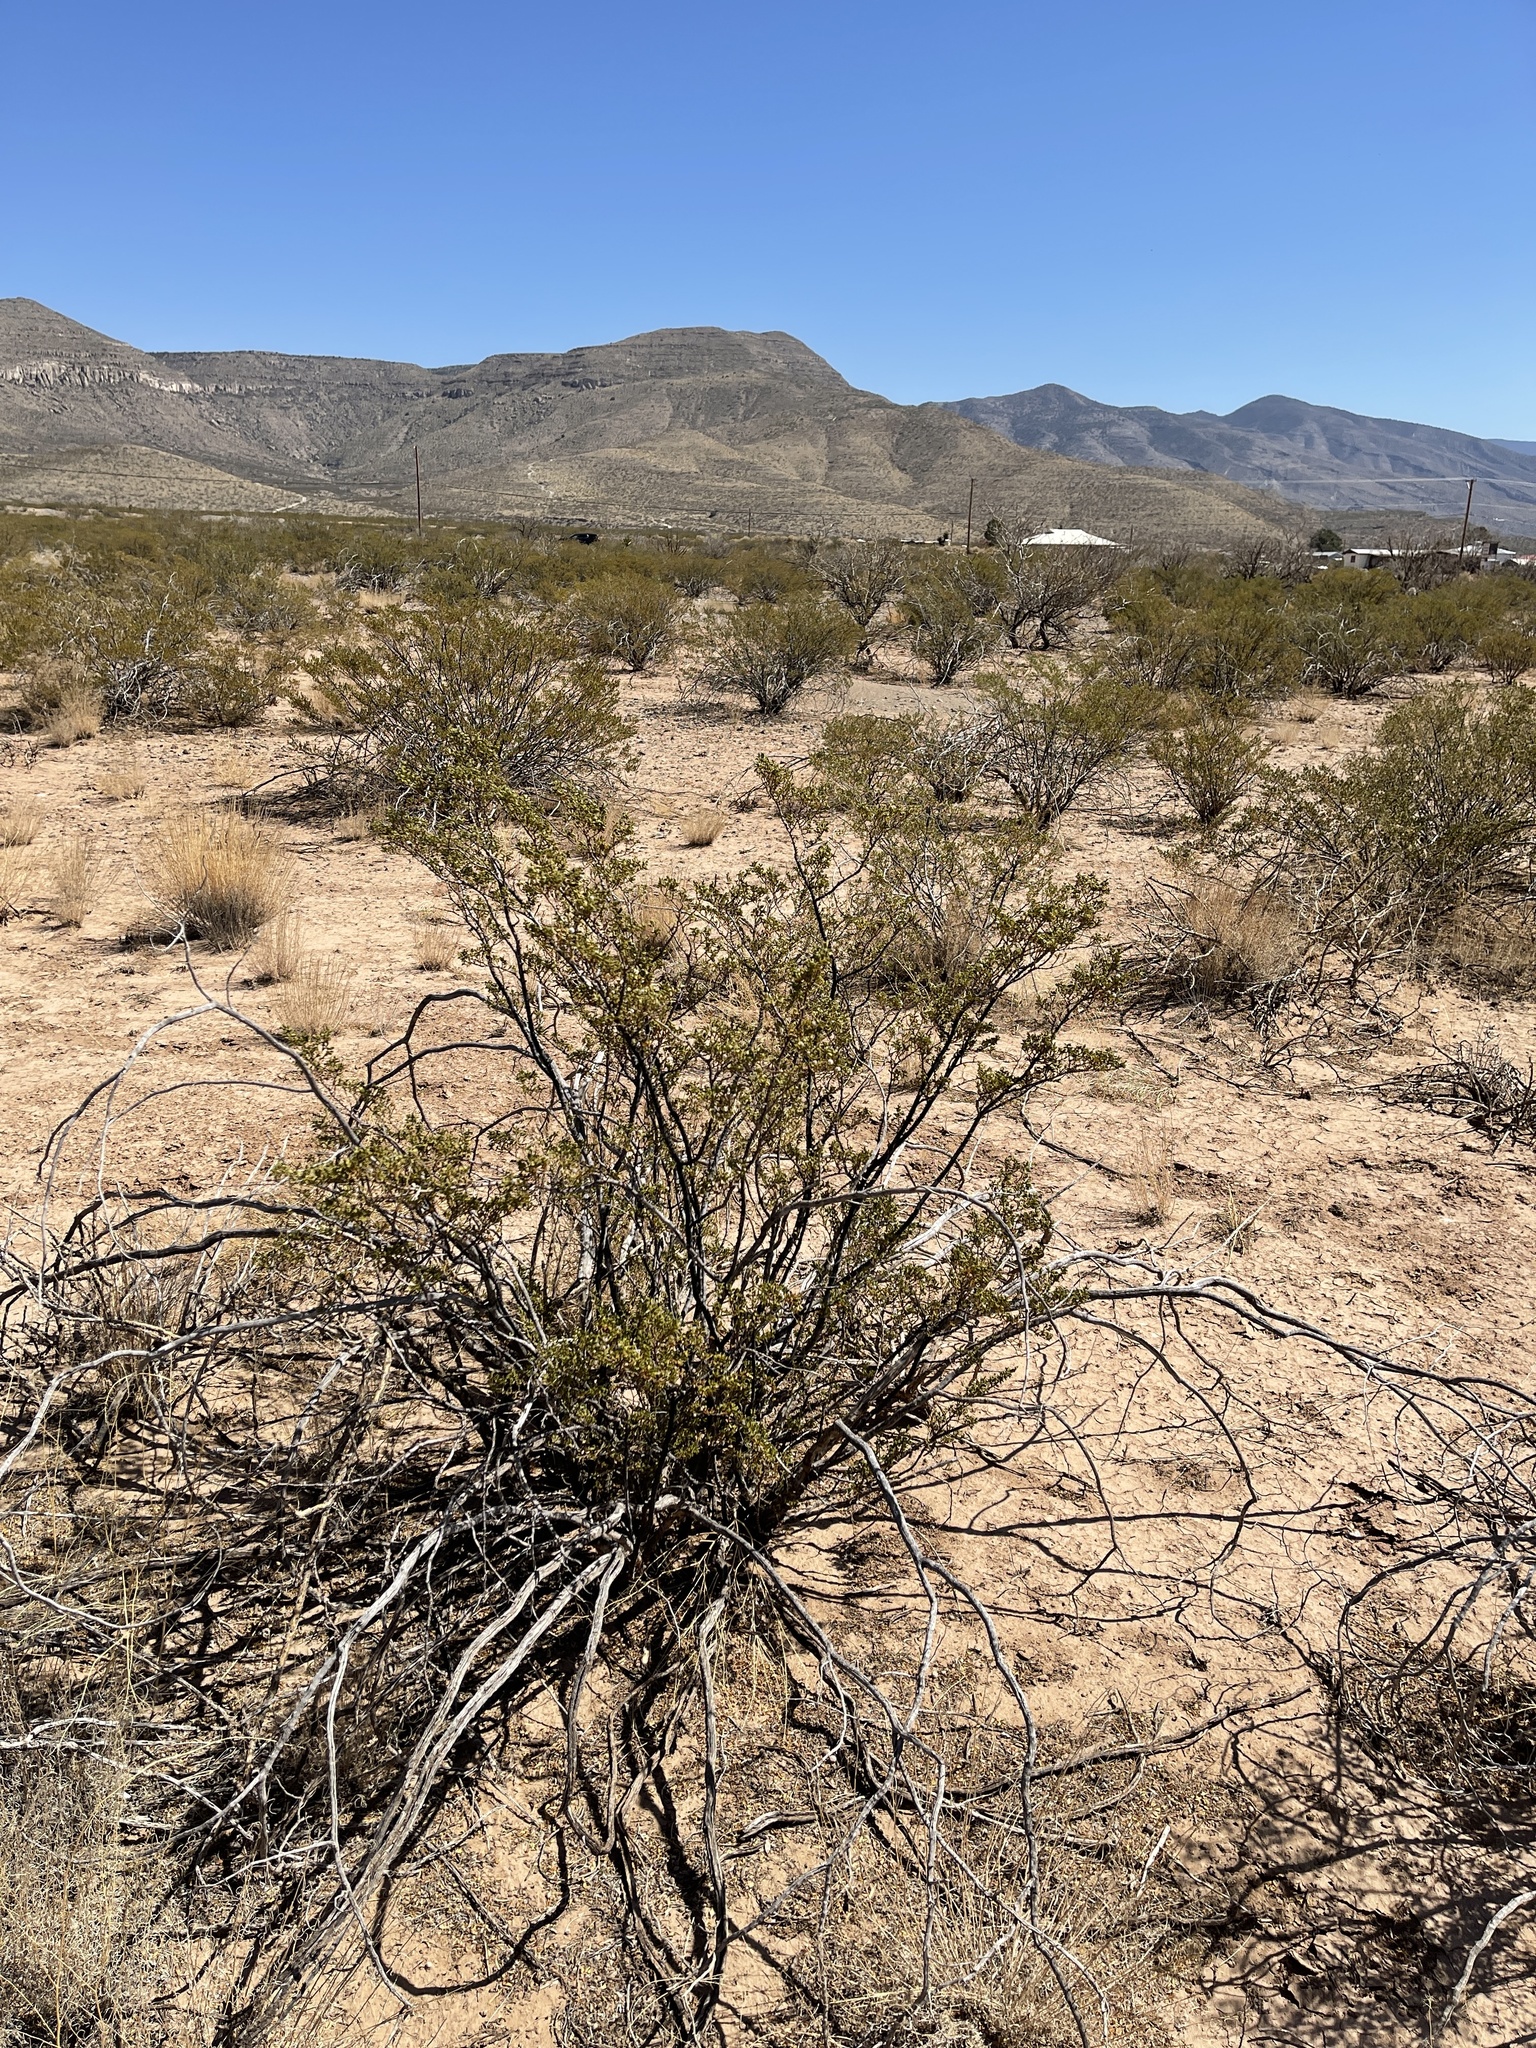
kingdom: Plantae
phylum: Tracheophyta
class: Magnoliopsida
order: Zygophyllales
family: Zygophyllaceae
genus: Larrea
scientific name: Larrea tridentata
